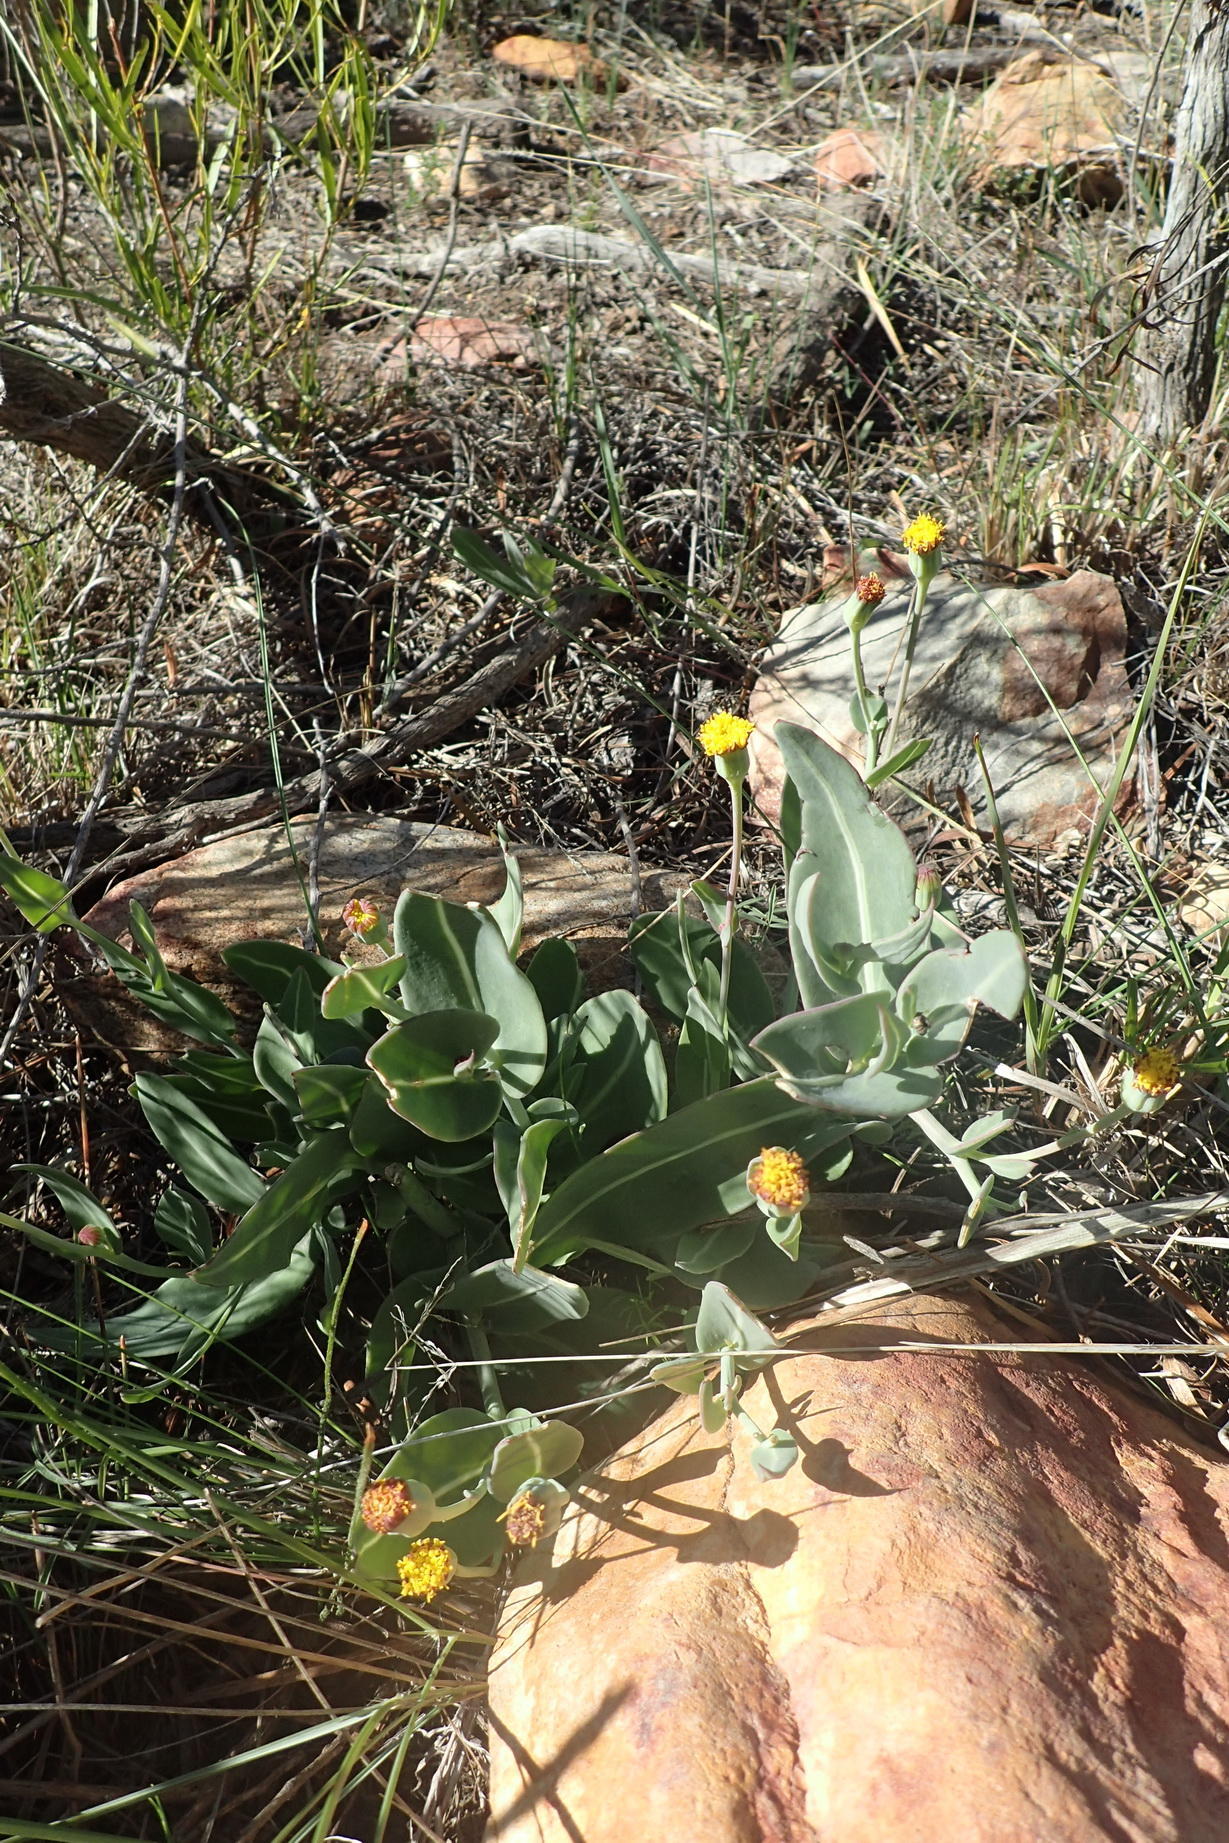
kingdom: Plantae
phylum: Tracheophyta
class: Magnoliopsida
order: Asterales
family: Asteraceae
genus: Othonna
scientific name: Othonna gymnodiscus
